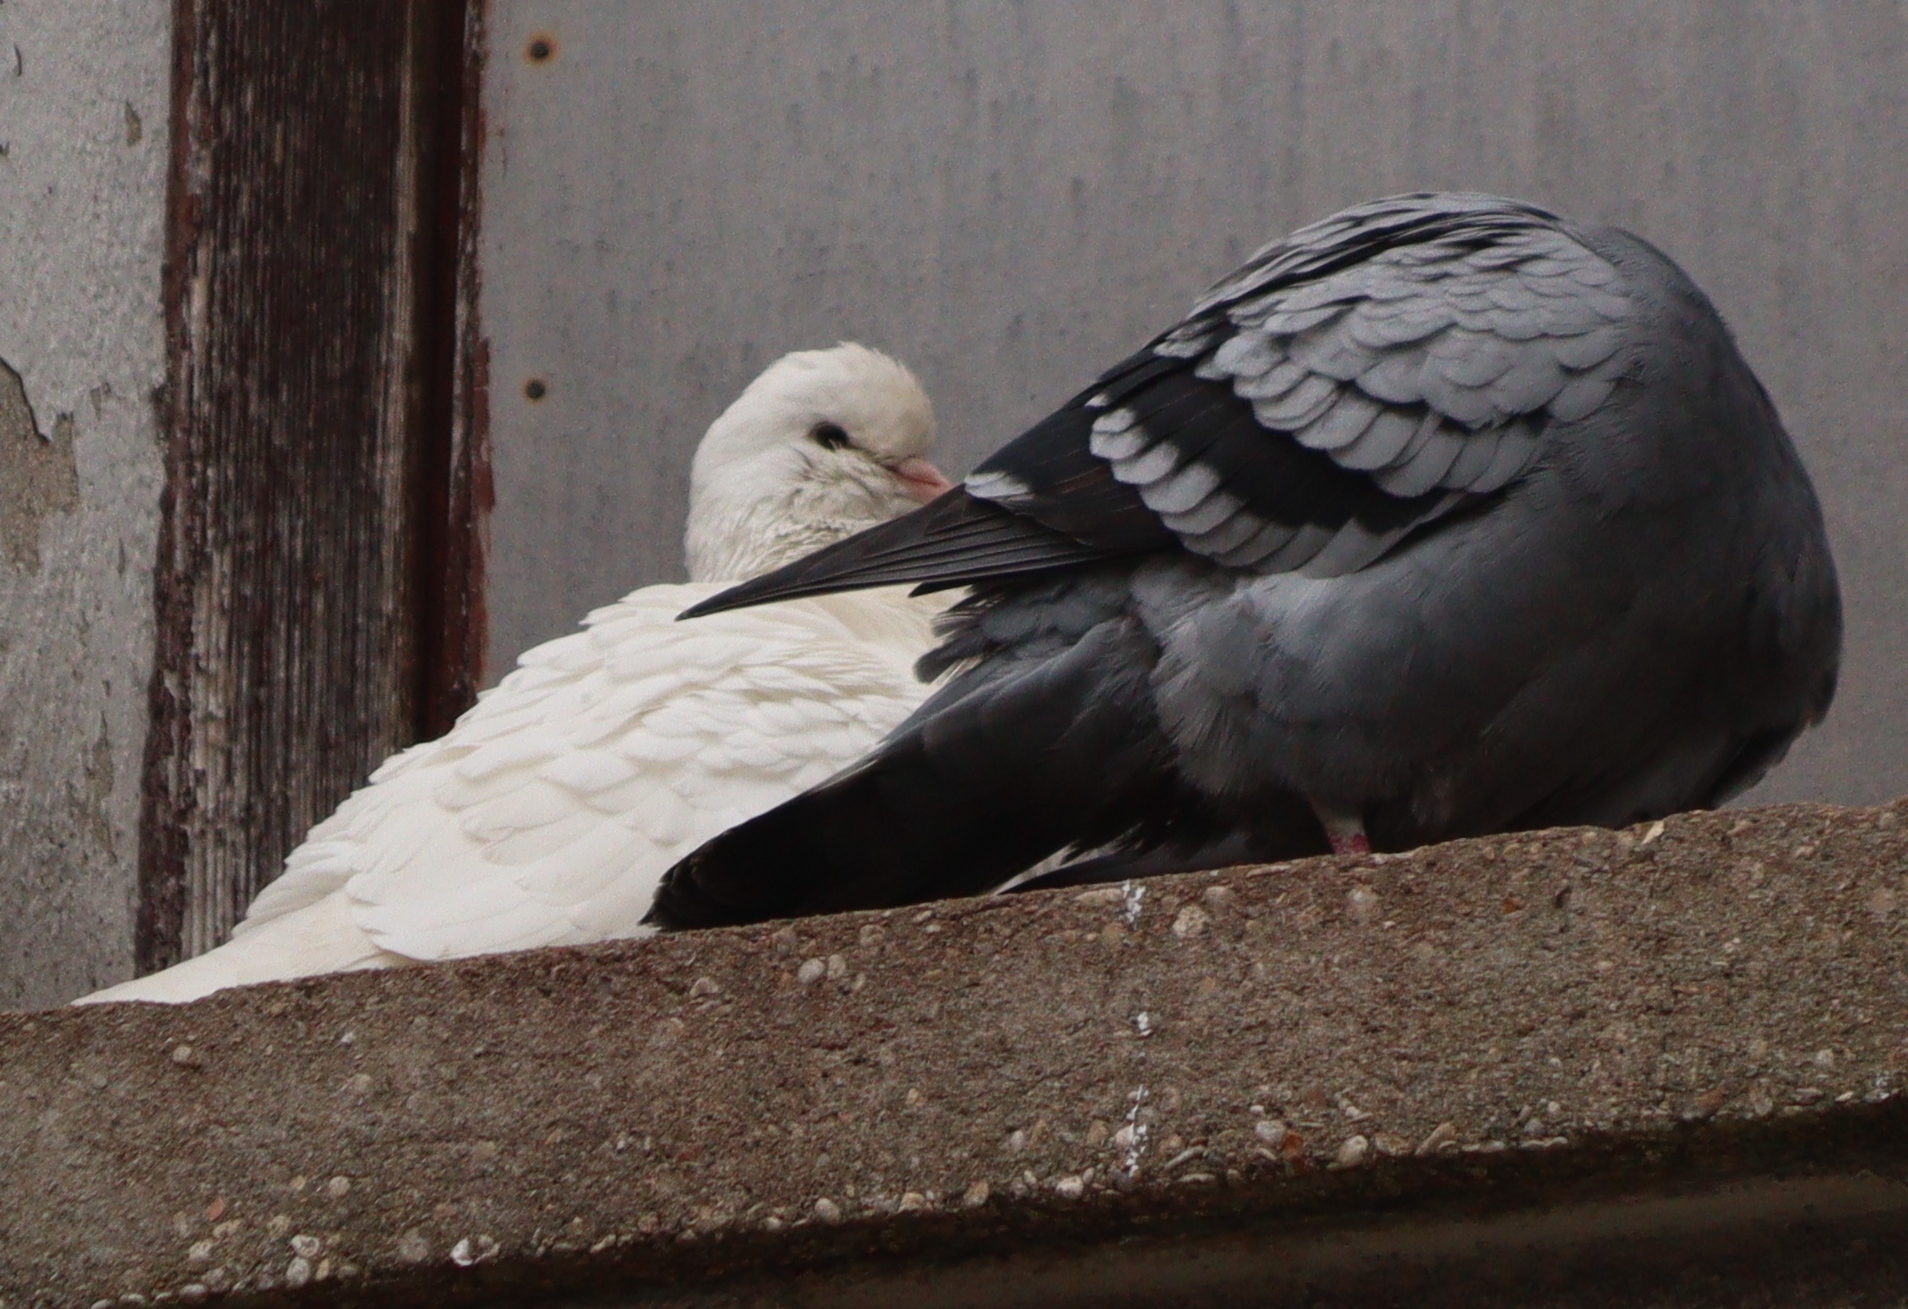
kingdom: Animalia
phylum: Chordata
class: Aves
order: Columbiformes
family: Columbidae
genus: Columba
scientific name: Columba livia
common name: Rock pigeon
